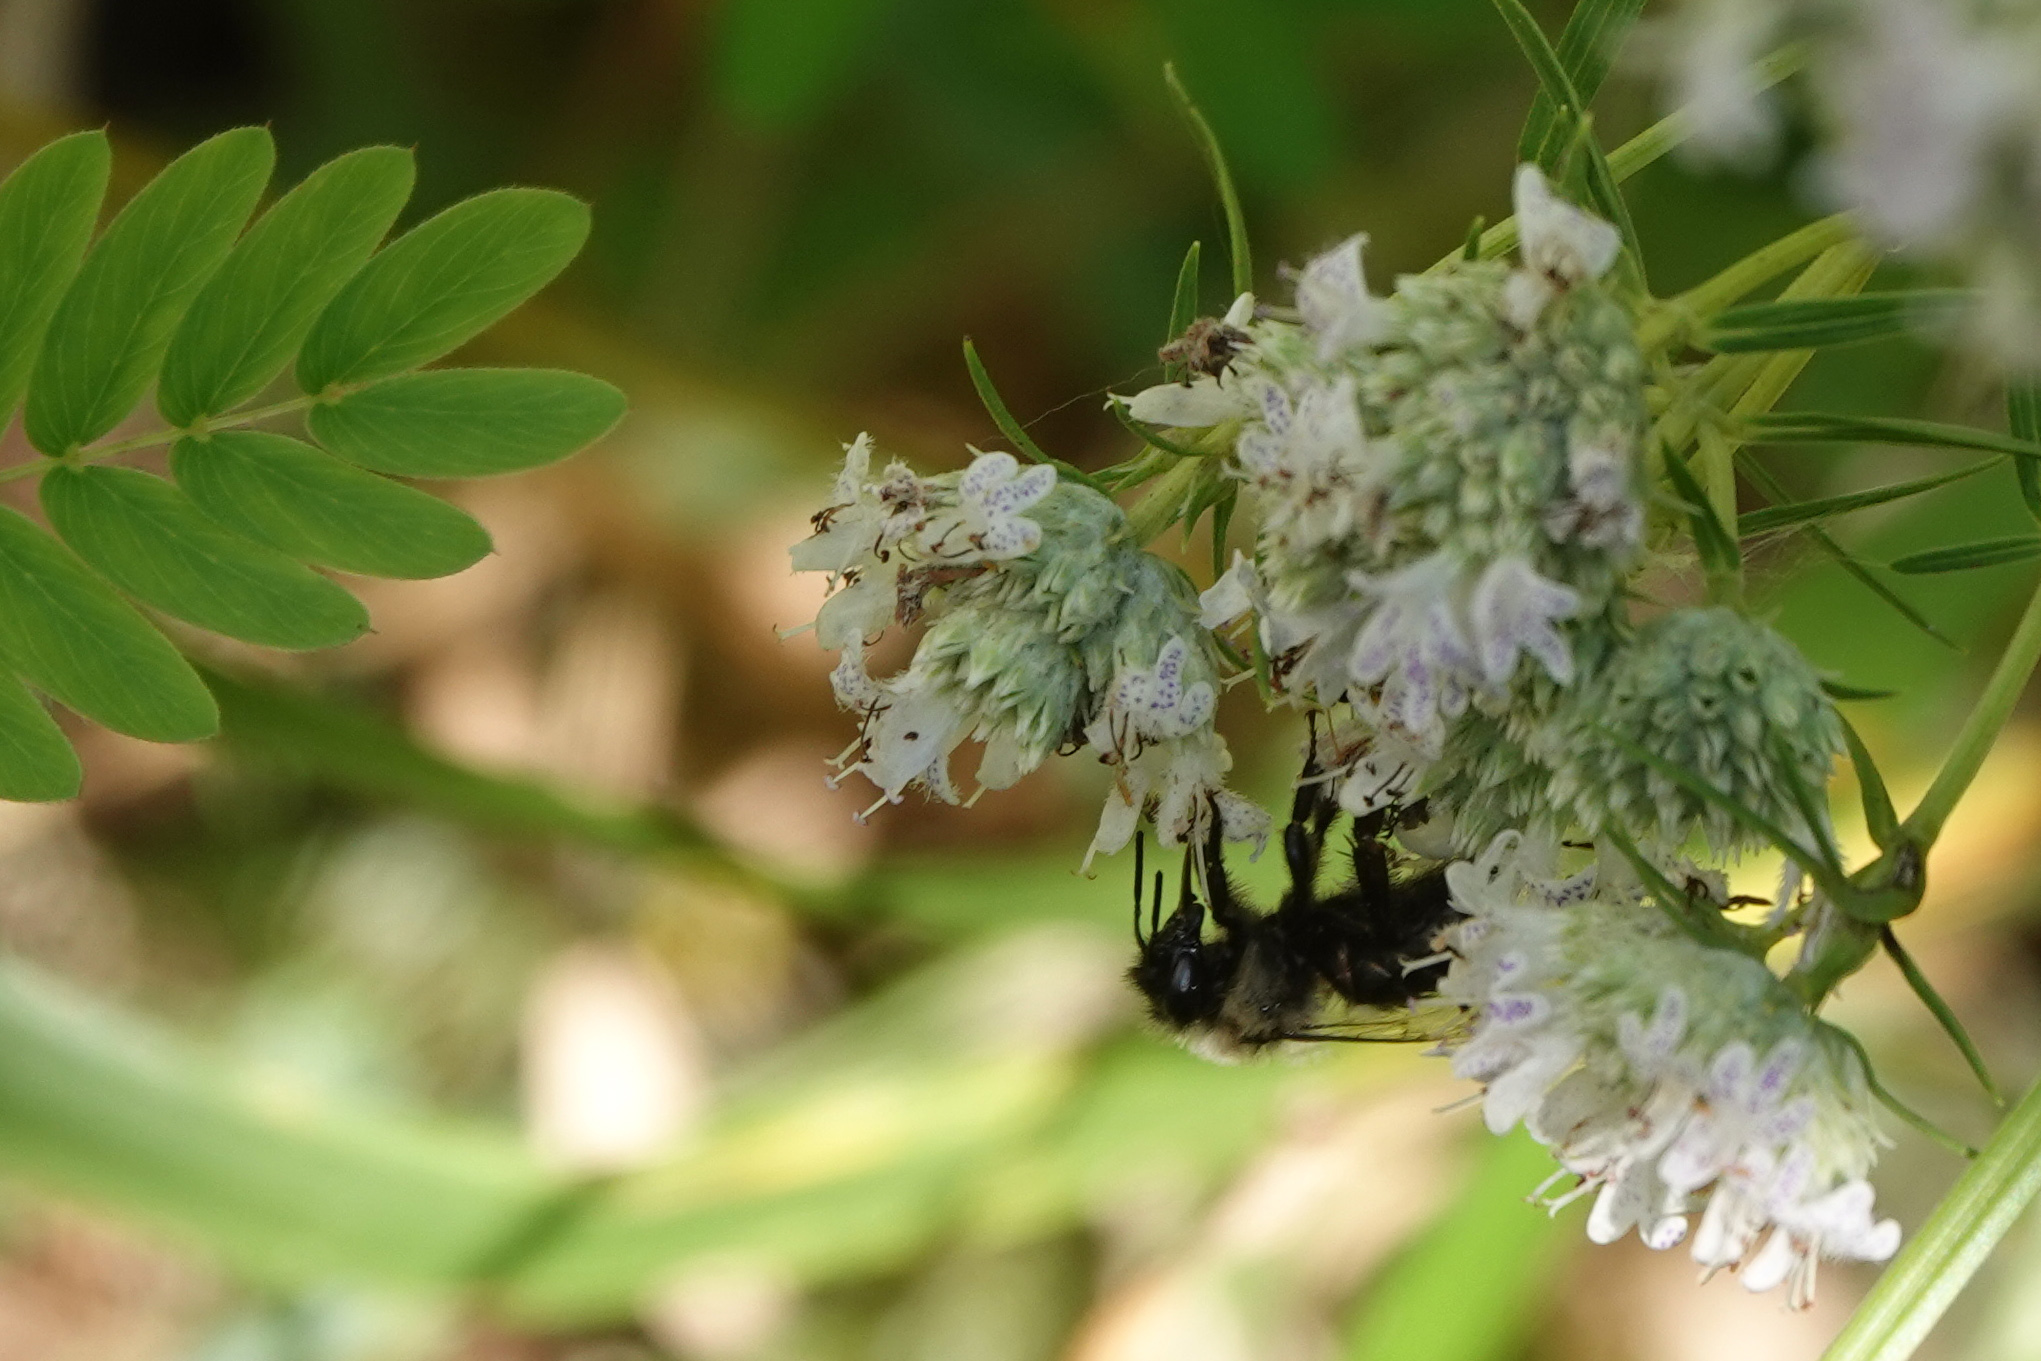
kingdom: Animalia
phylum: Arthropoda
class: Insecta
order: Hymenoptera
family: Apidae
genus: Bombus
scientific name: Bombus impatiens
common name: Common eastern bumble bee
